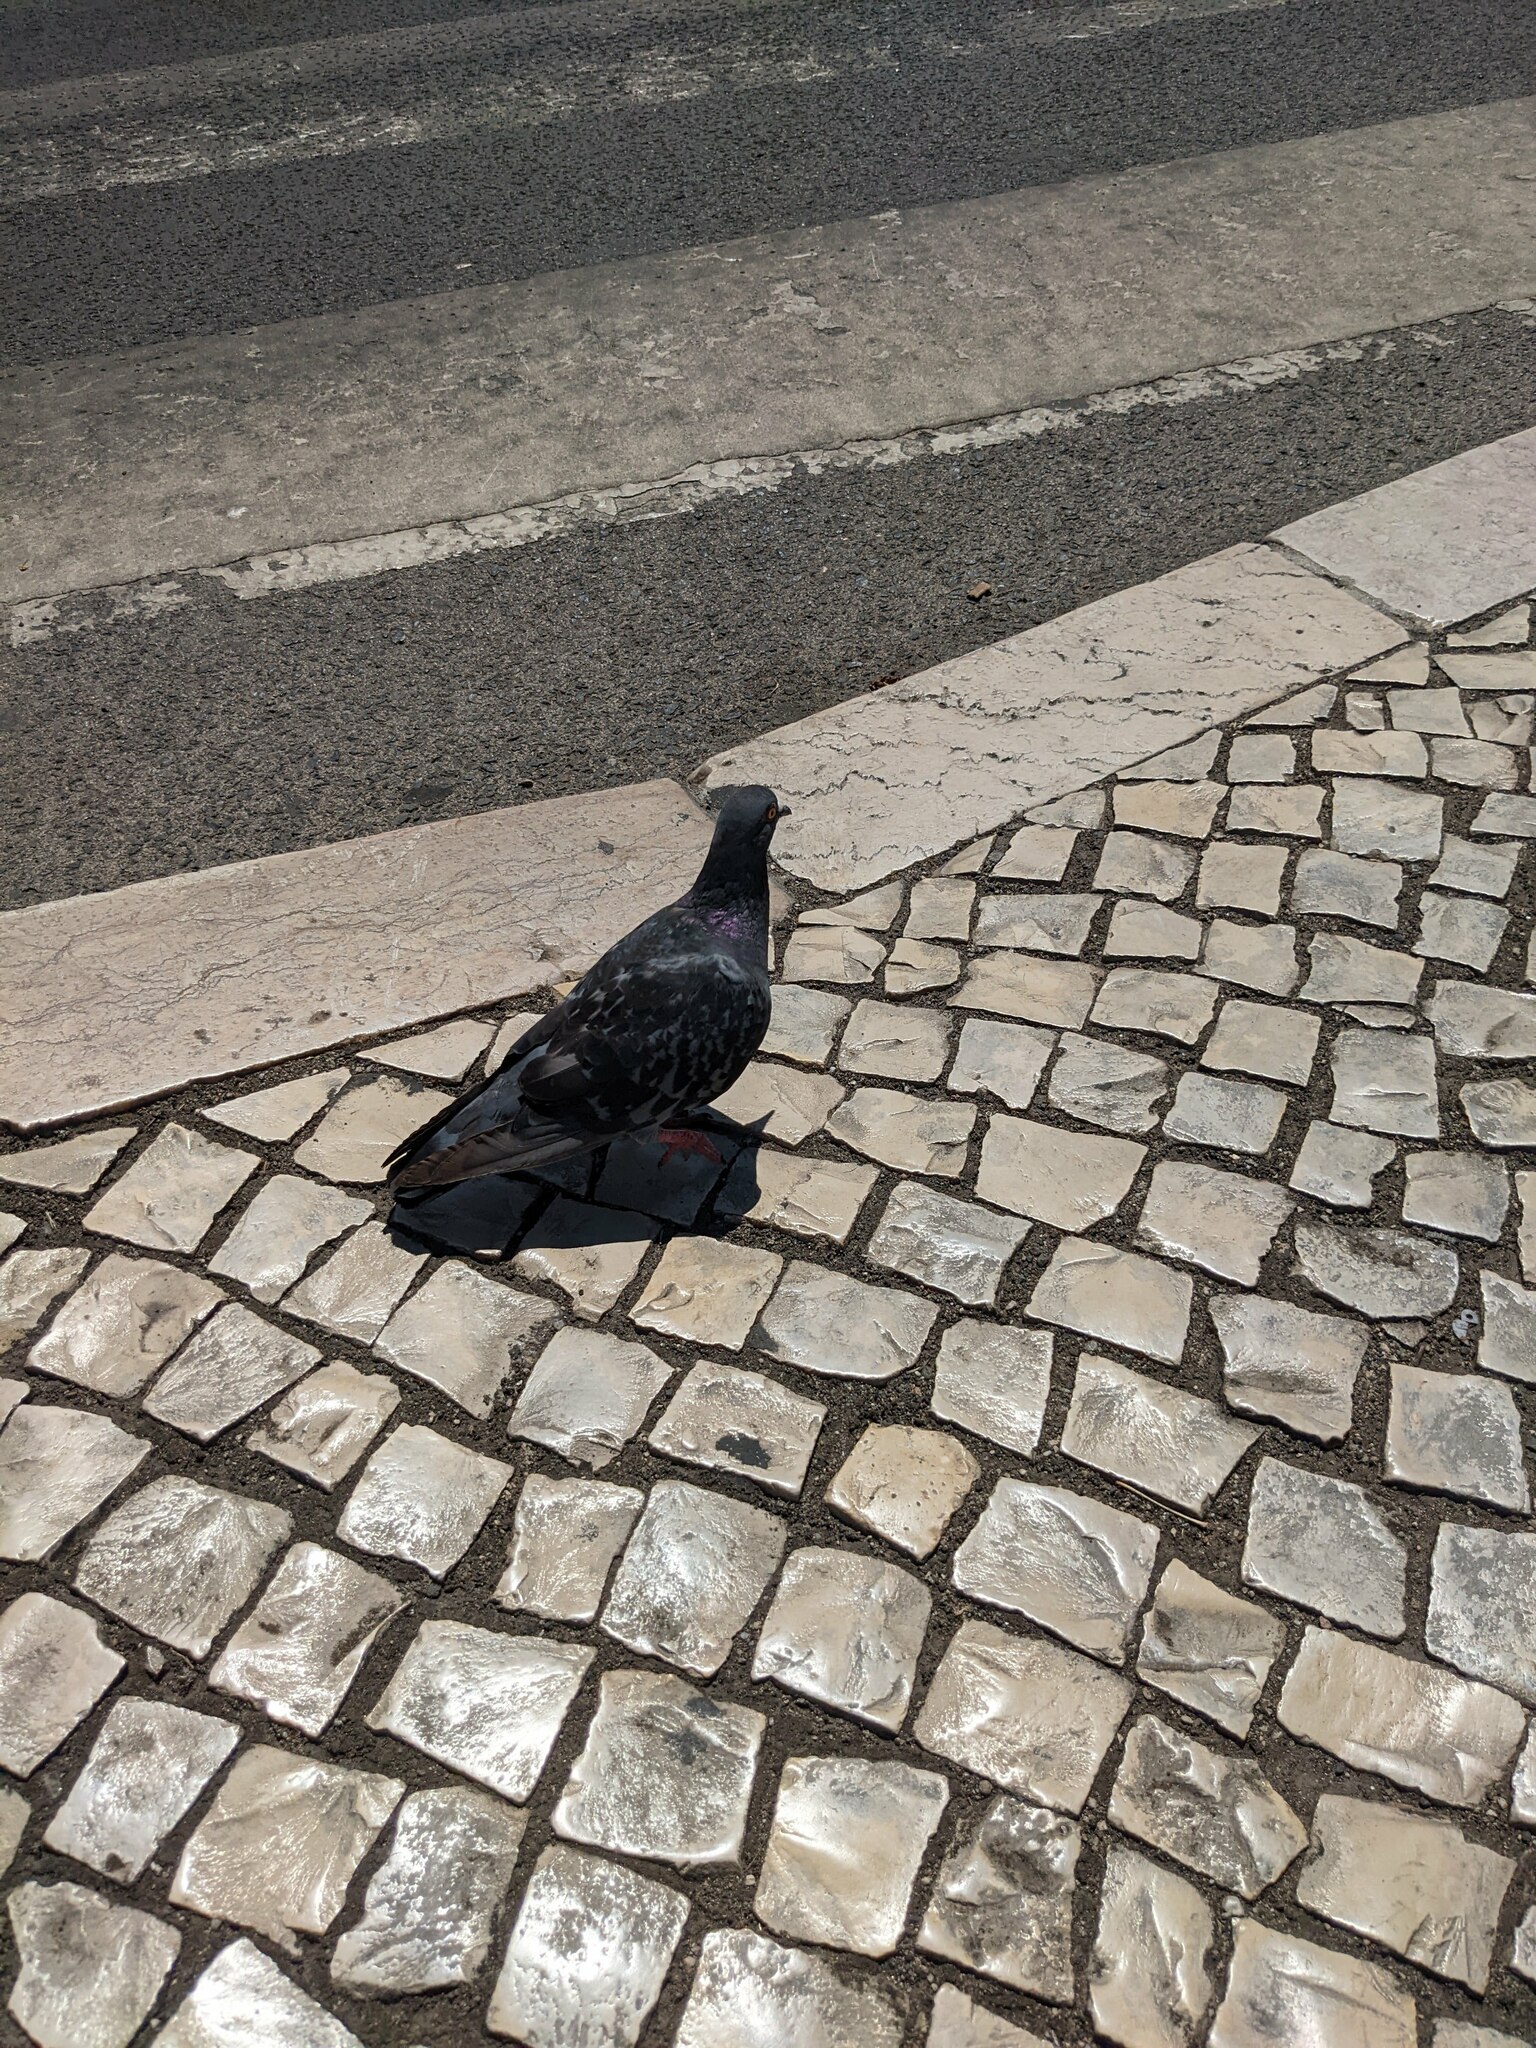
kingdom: Animalia
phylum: Chordata
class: Aves
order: Columbiformes
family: Columbidae
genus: Columba
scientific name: Columba livia
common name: Rock pigeon
